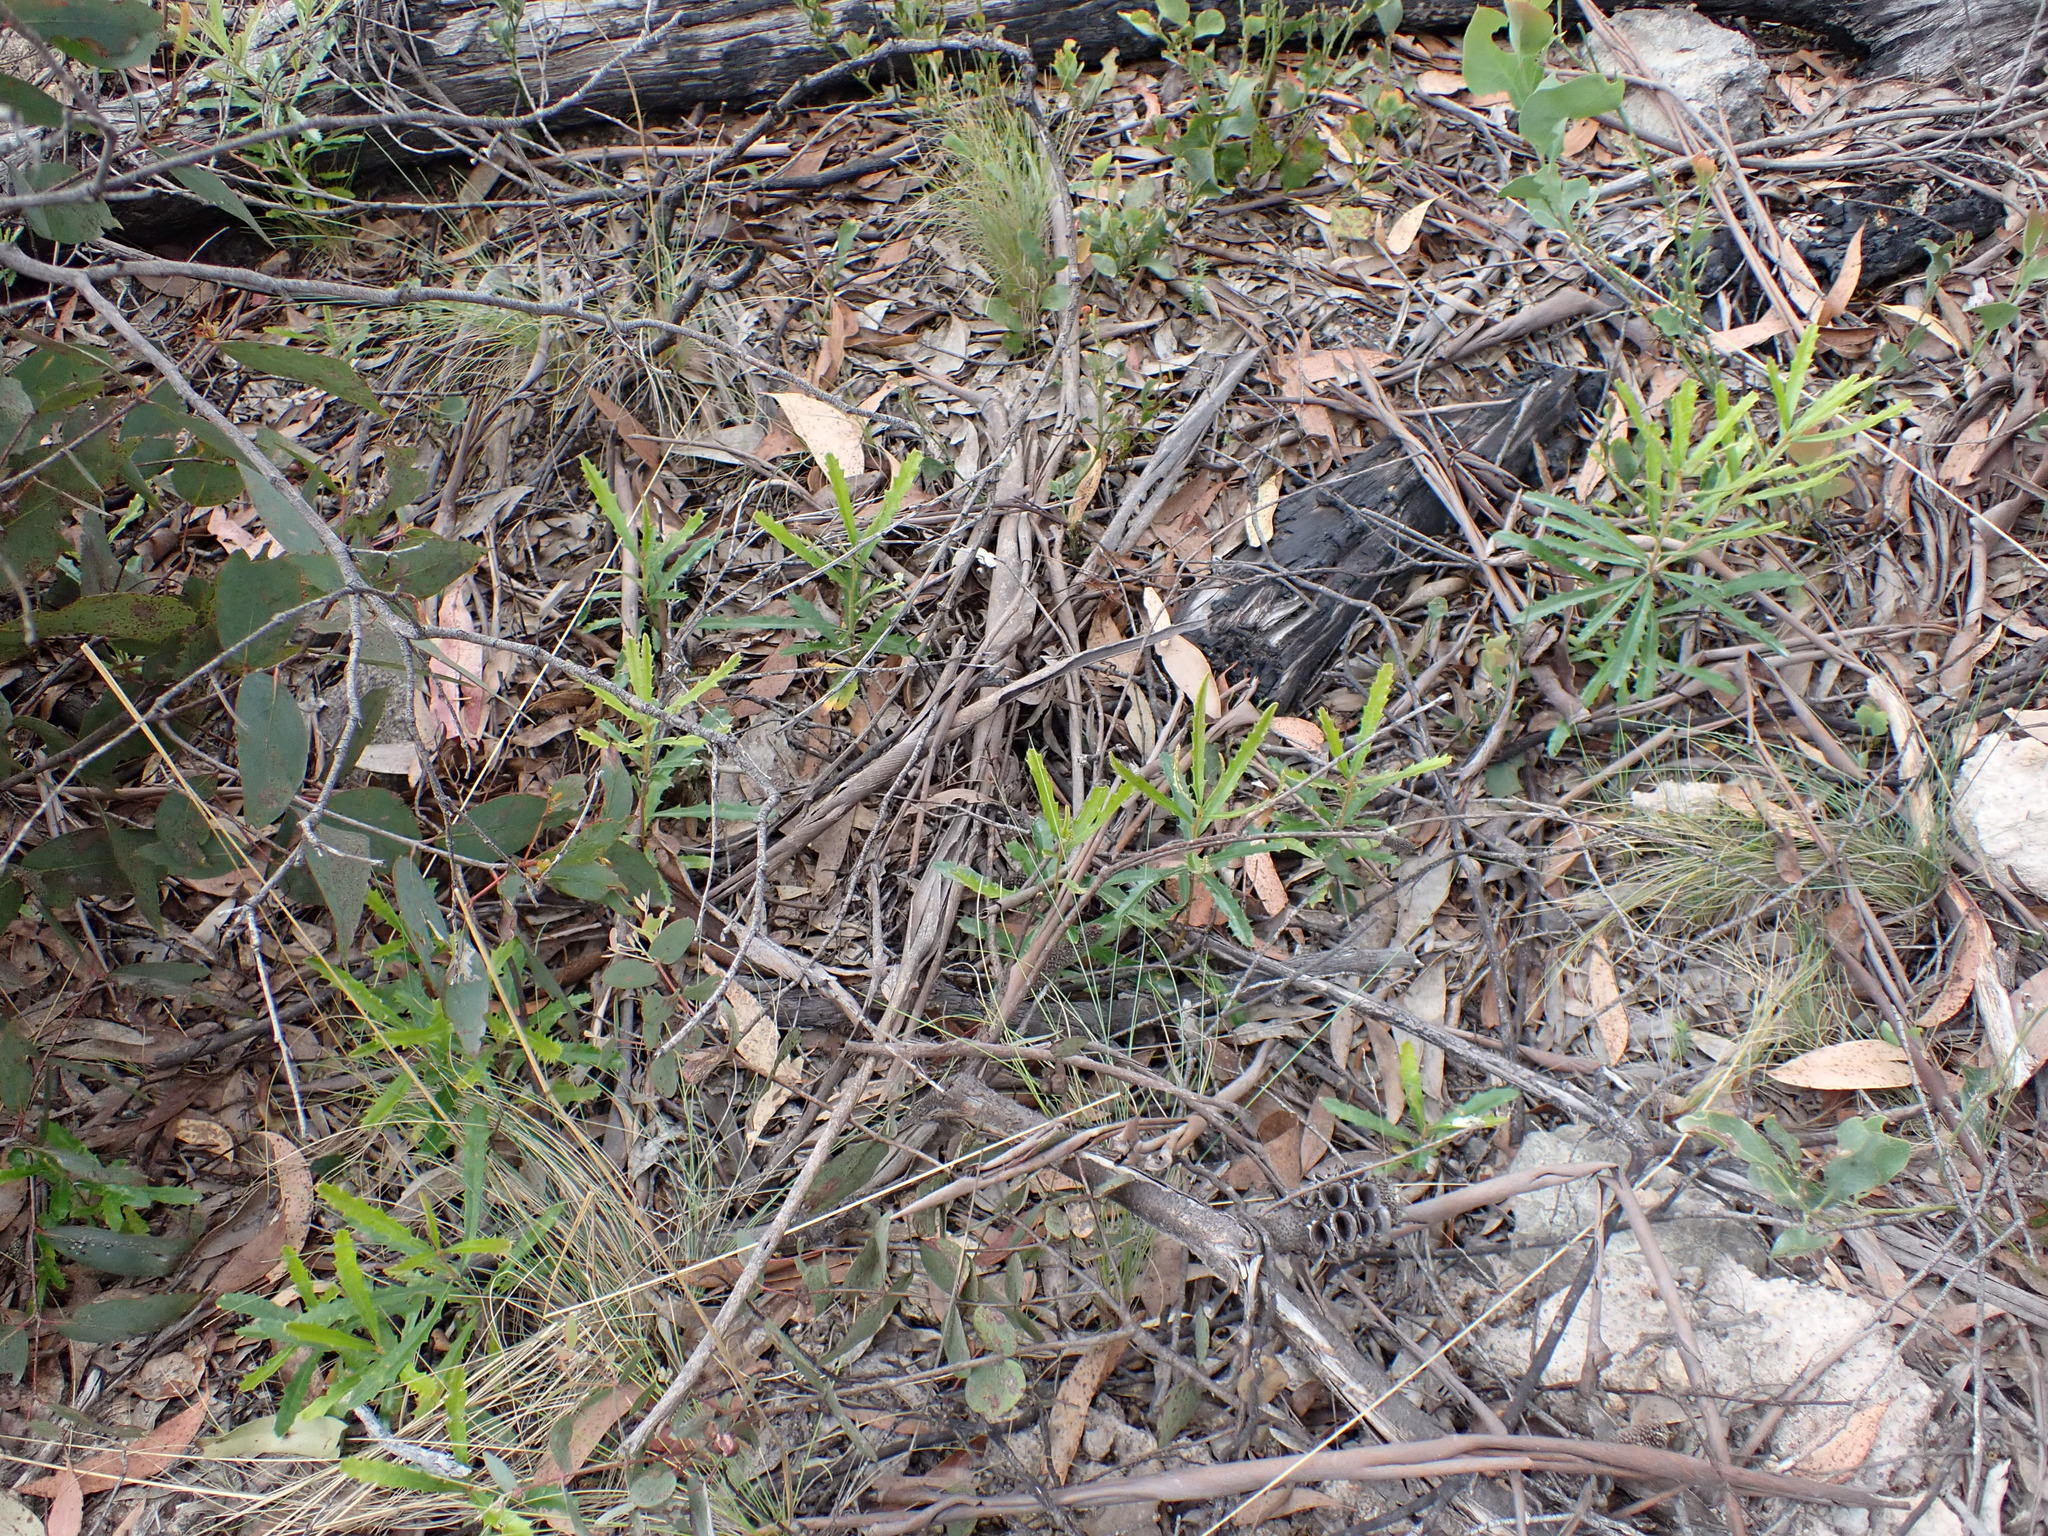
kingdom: Plantae
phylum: Tracheophyta
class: Magnoliopsida
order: Proteales
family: Proteaceae
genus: Banksia
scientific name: Banksia canei
